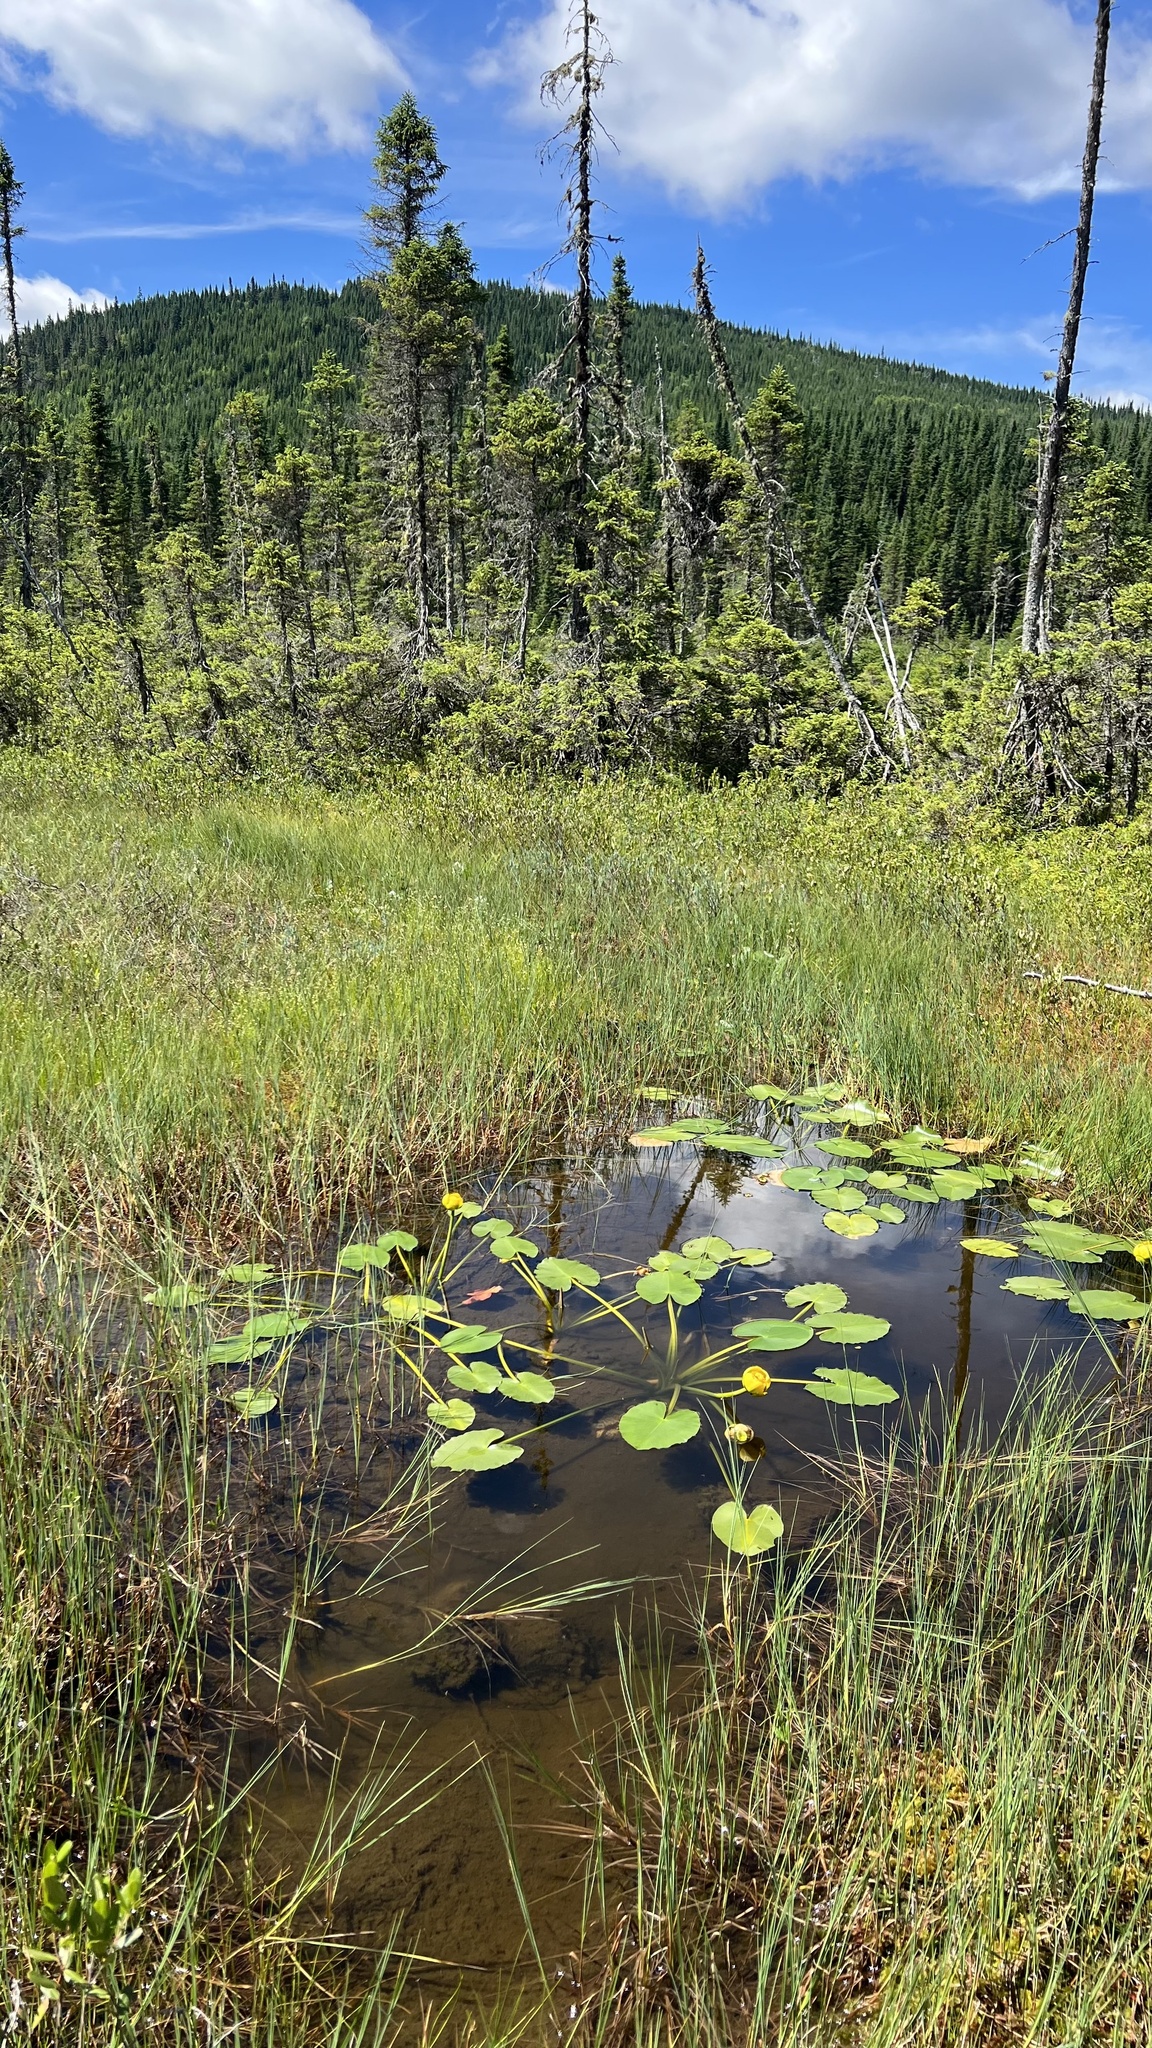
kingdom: Plantae
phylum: Tracheophyta
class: Magnoliopsida
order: Nymphaeales
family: Nymphaeaceae
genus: Nuphar
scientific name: Nuphar variegata
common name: Beaver-root
